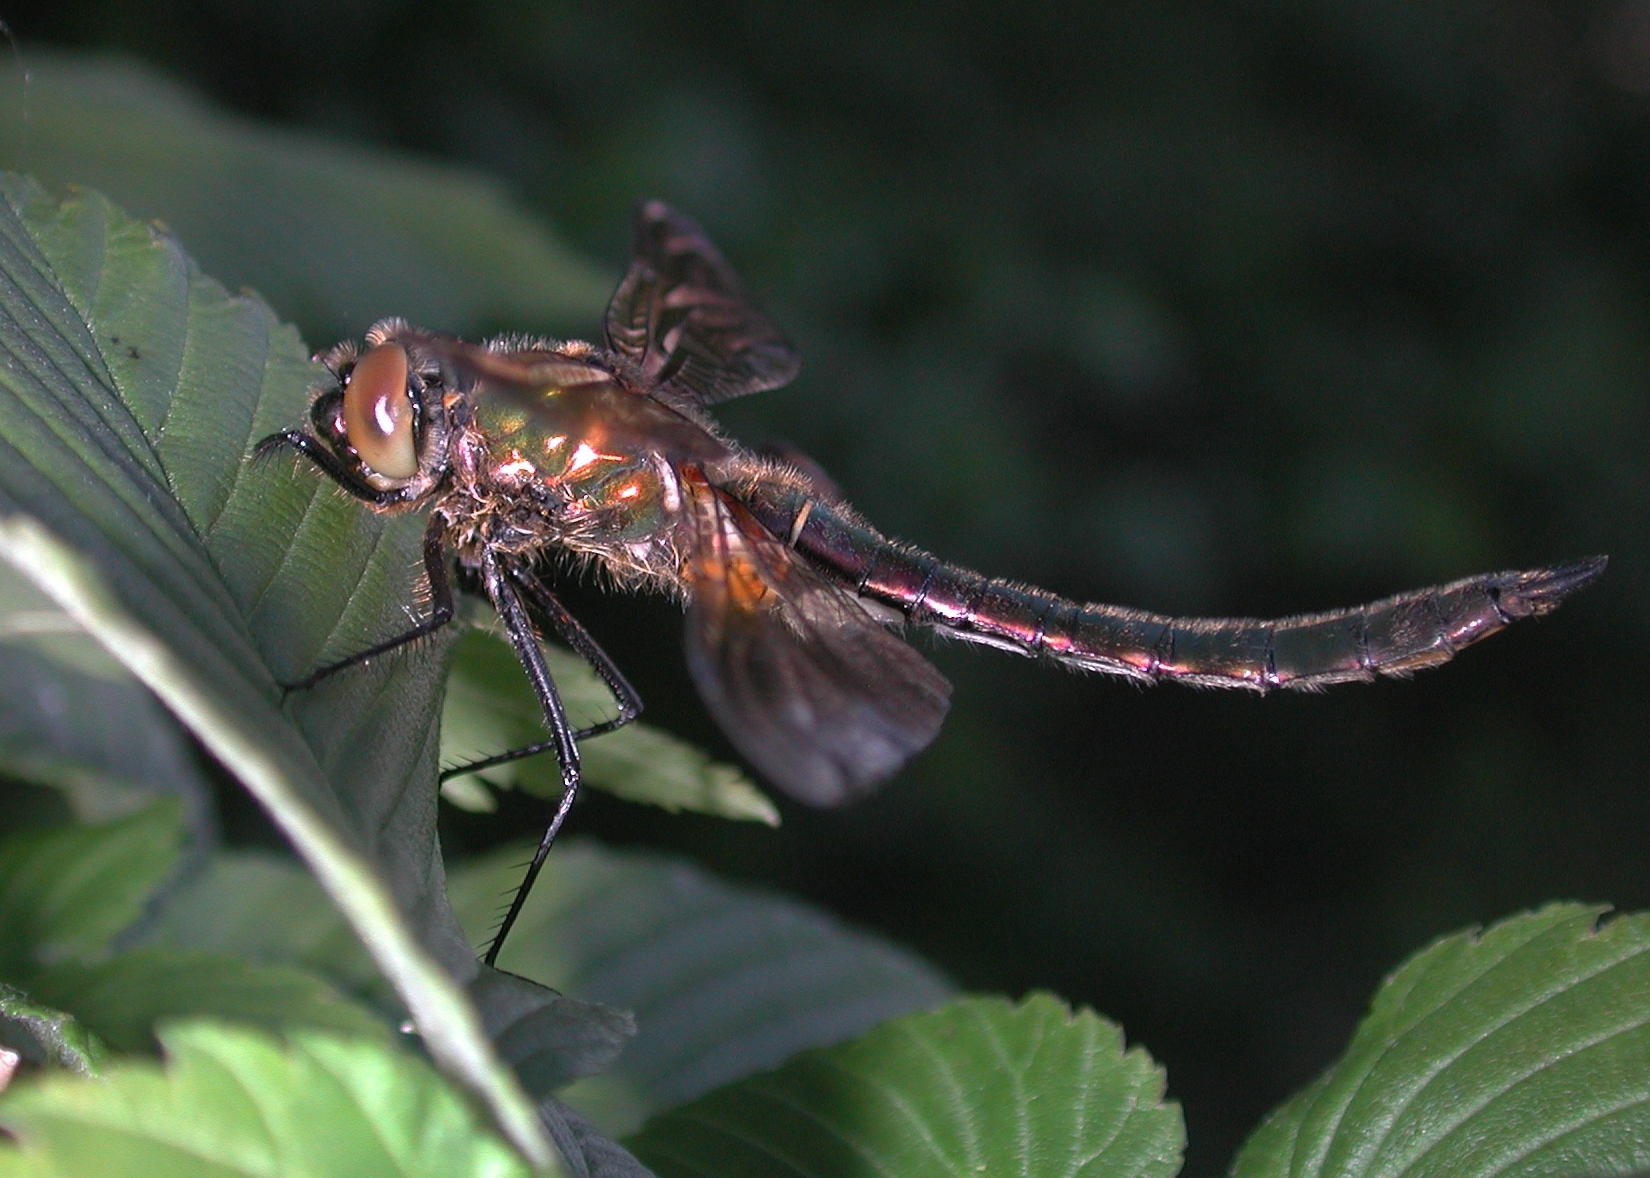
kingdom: Animalia
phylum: Arthropoda
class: Insecta
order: Odonata
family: Corduliidae
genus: Cordulia
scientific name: Cordulia aenea
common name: Downy emerald
